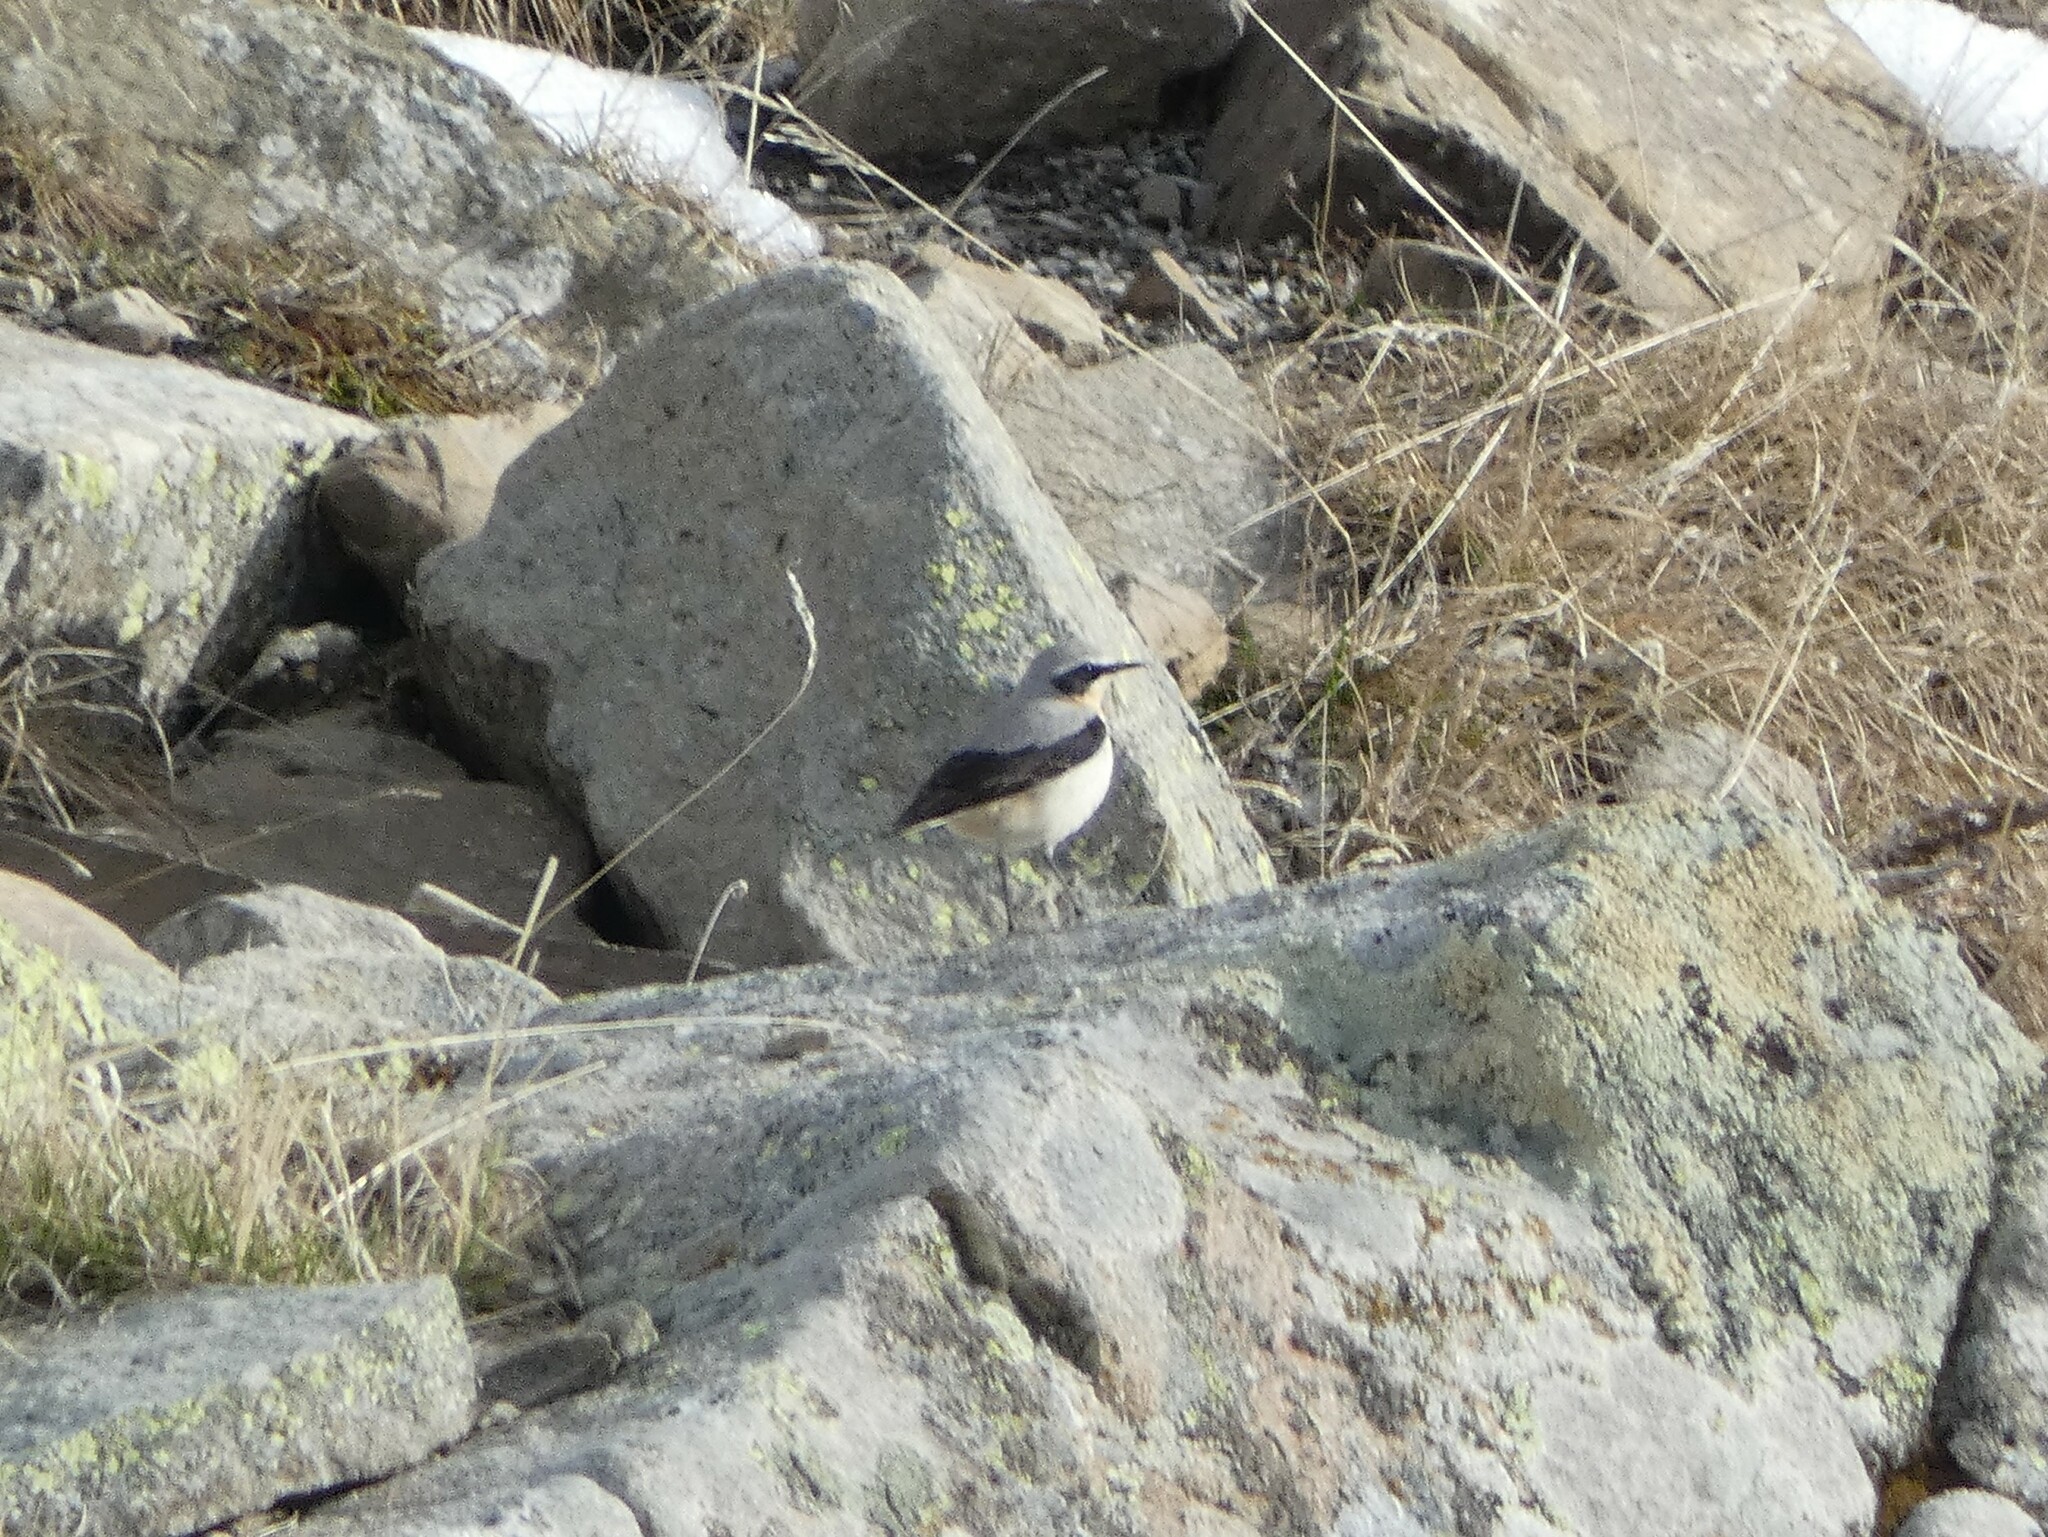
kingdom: Animalia
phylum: Chordata
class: Aves
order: Passeriformes
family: Muscicapidae
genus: Oenanthe
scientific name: Oenanthe oenanthe
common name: Northern wheatear
